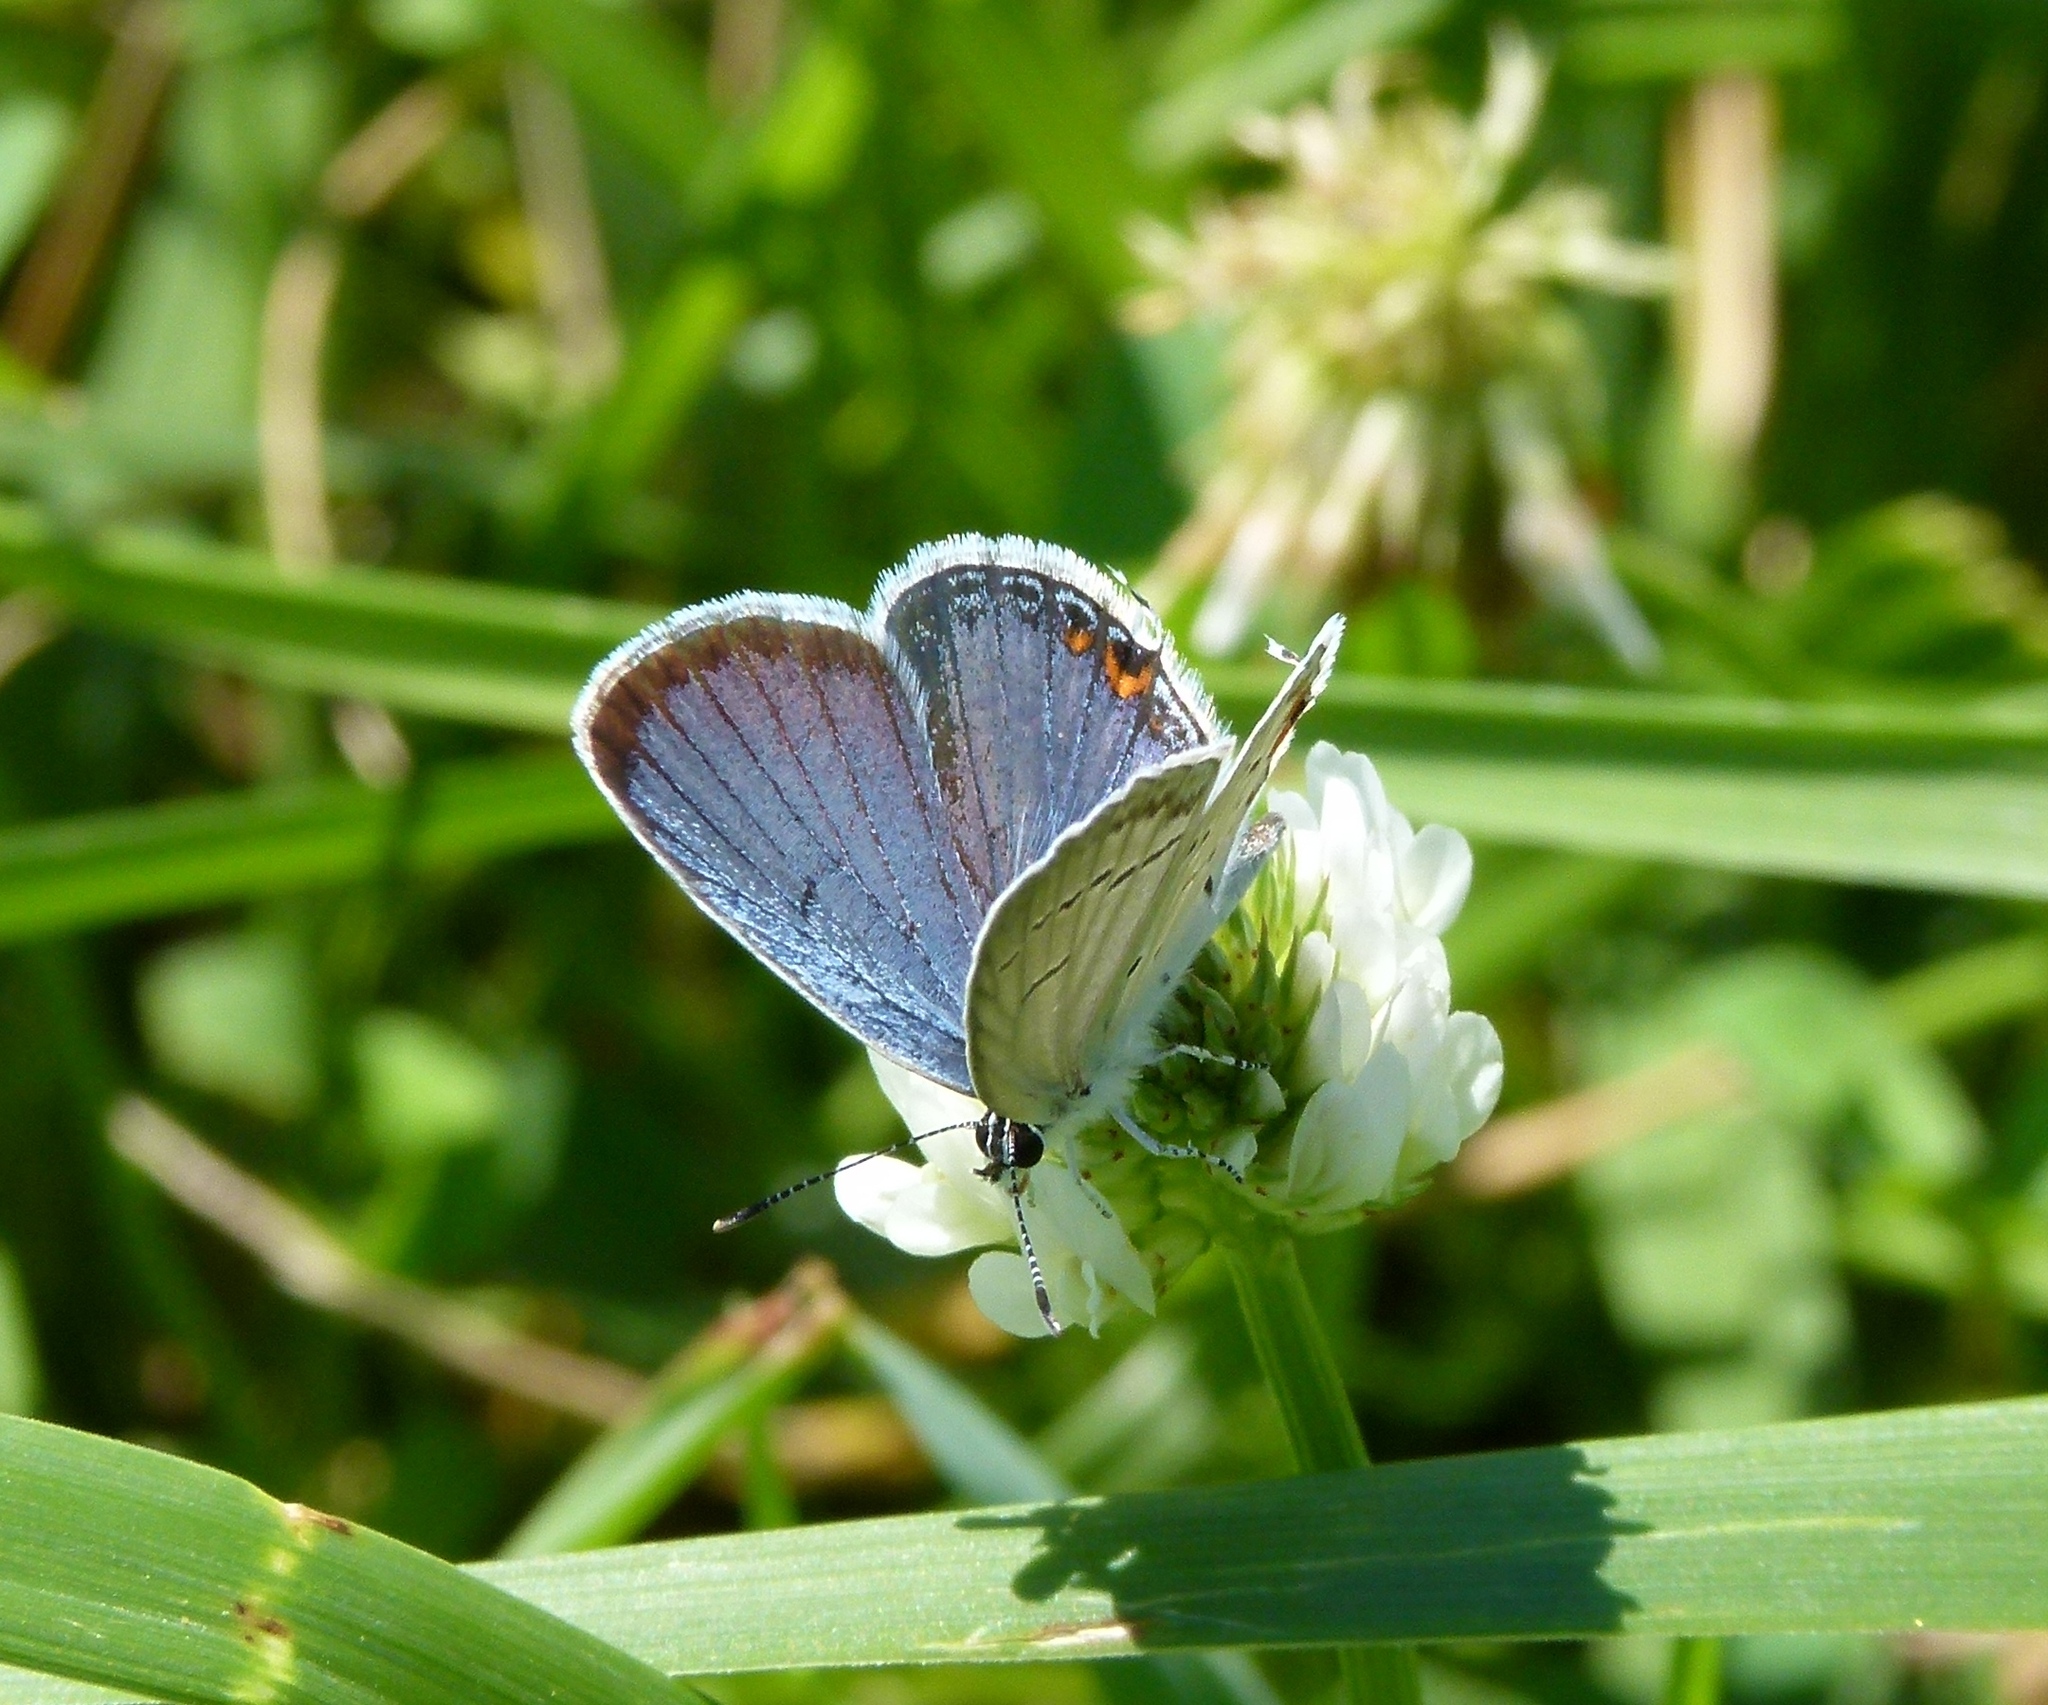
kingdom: Animalia
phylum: Arthropoda
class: Insecta
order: Lepidoptera
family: Lycaenidae
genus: Elkalyce
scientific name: Elkalyce comyntas
